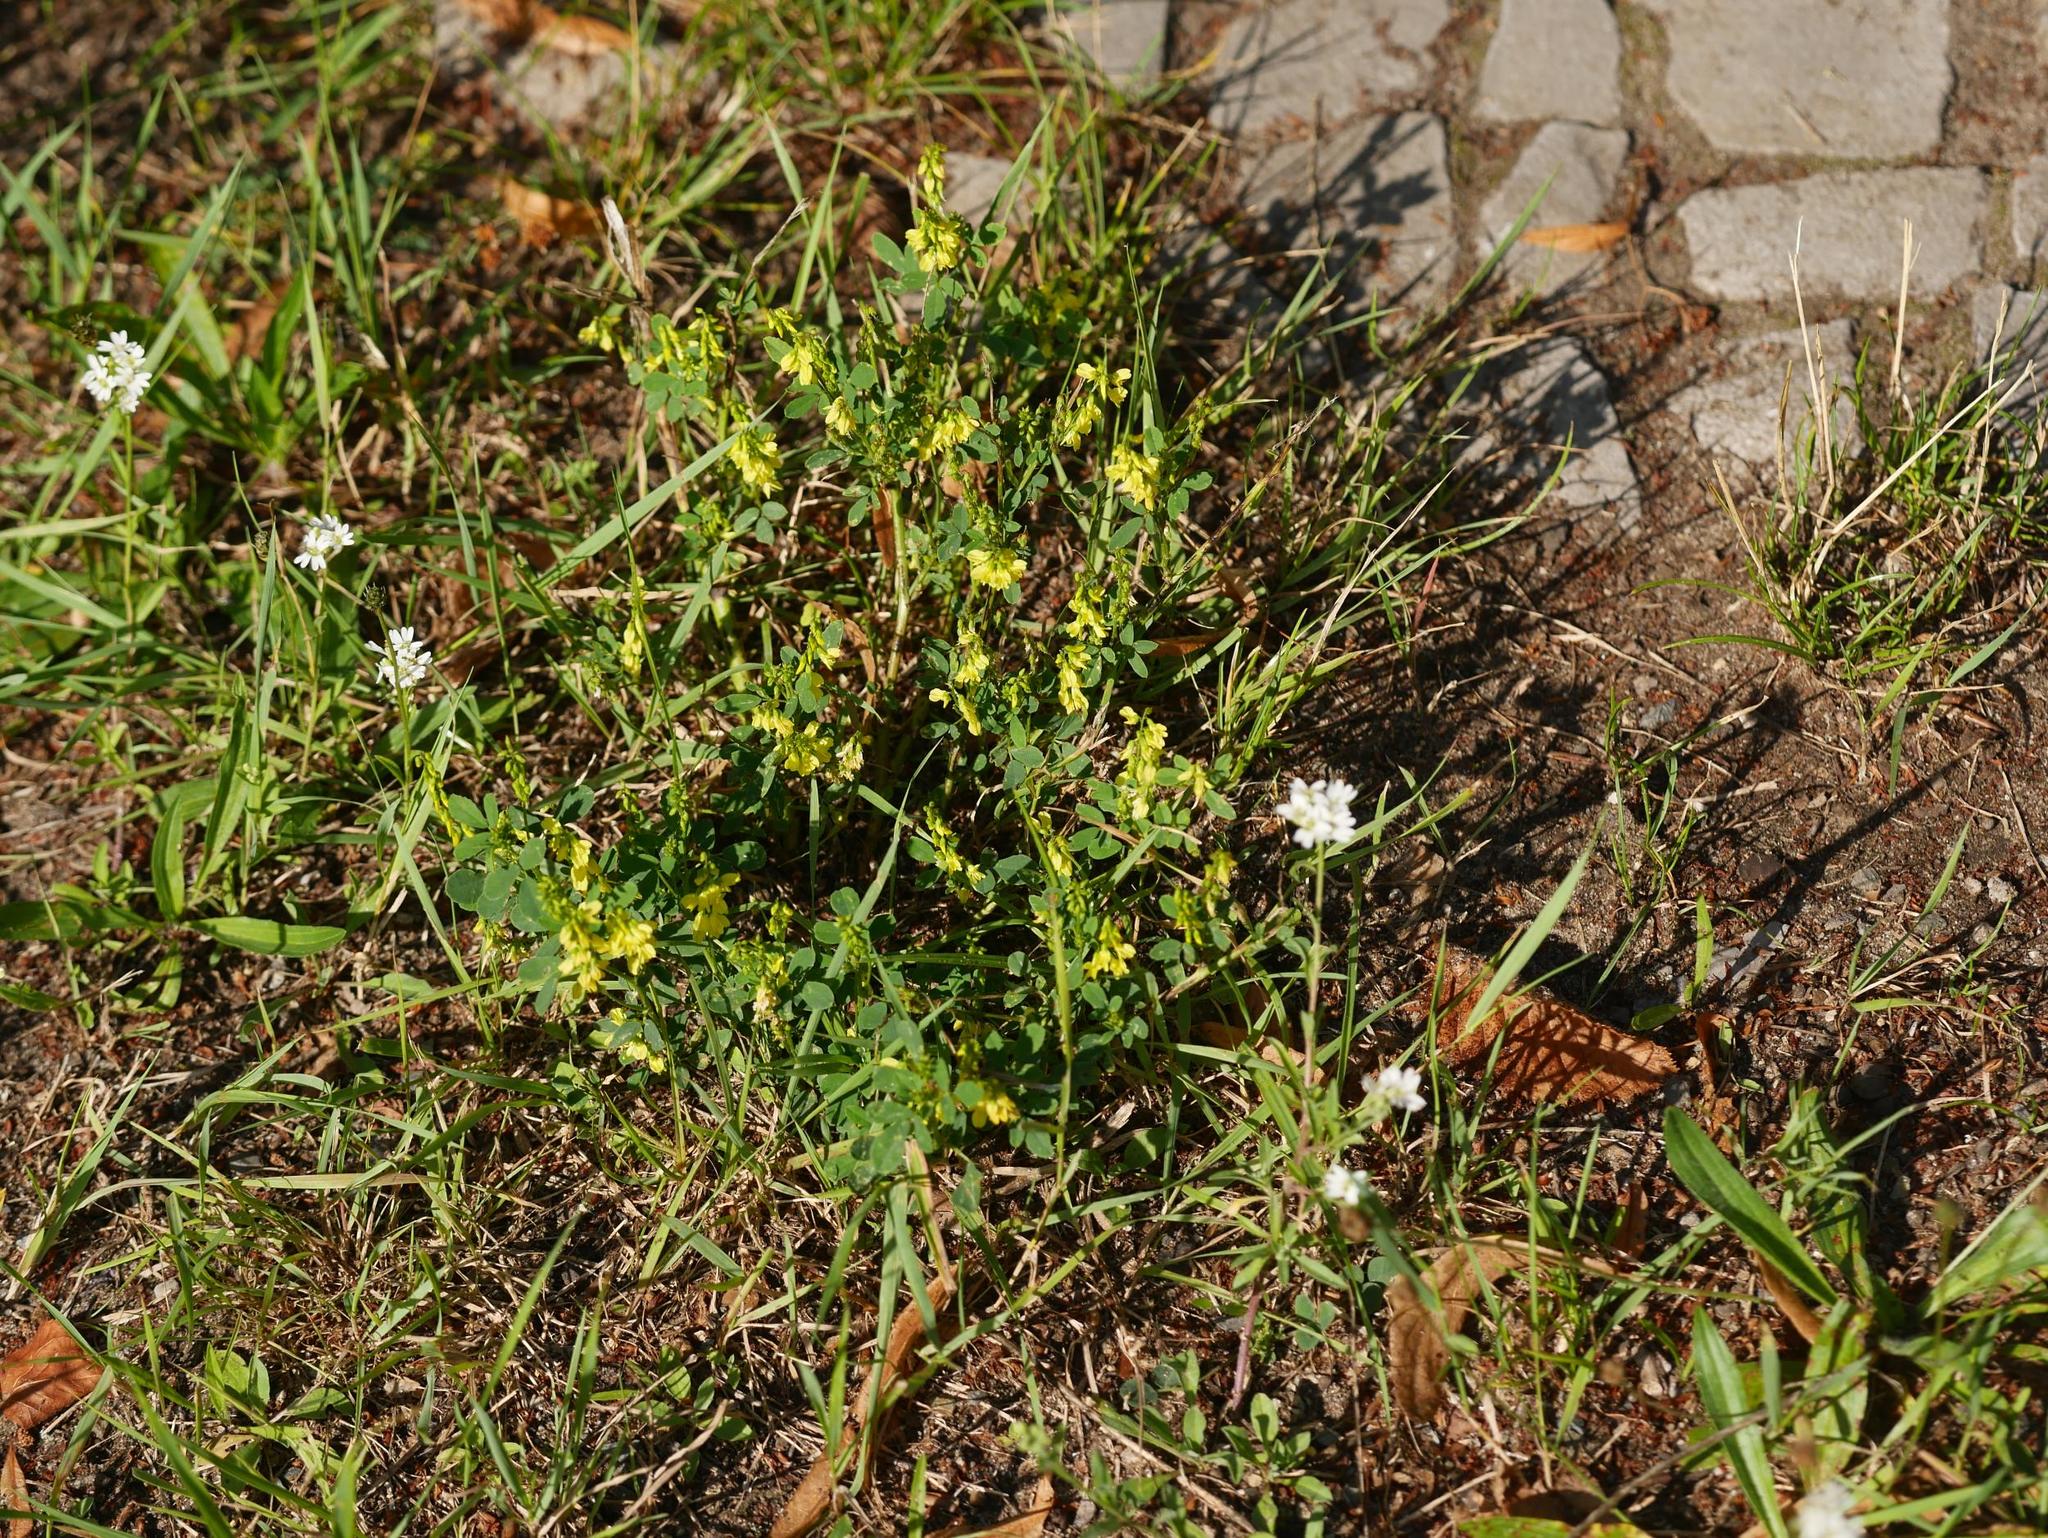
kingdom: Plantae
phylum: Tracheophyta
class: Magnoliopsida
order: Fabales
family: Fabaceae
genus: Melilotus
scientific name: Melilotus officinalis
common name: Sweetclover
